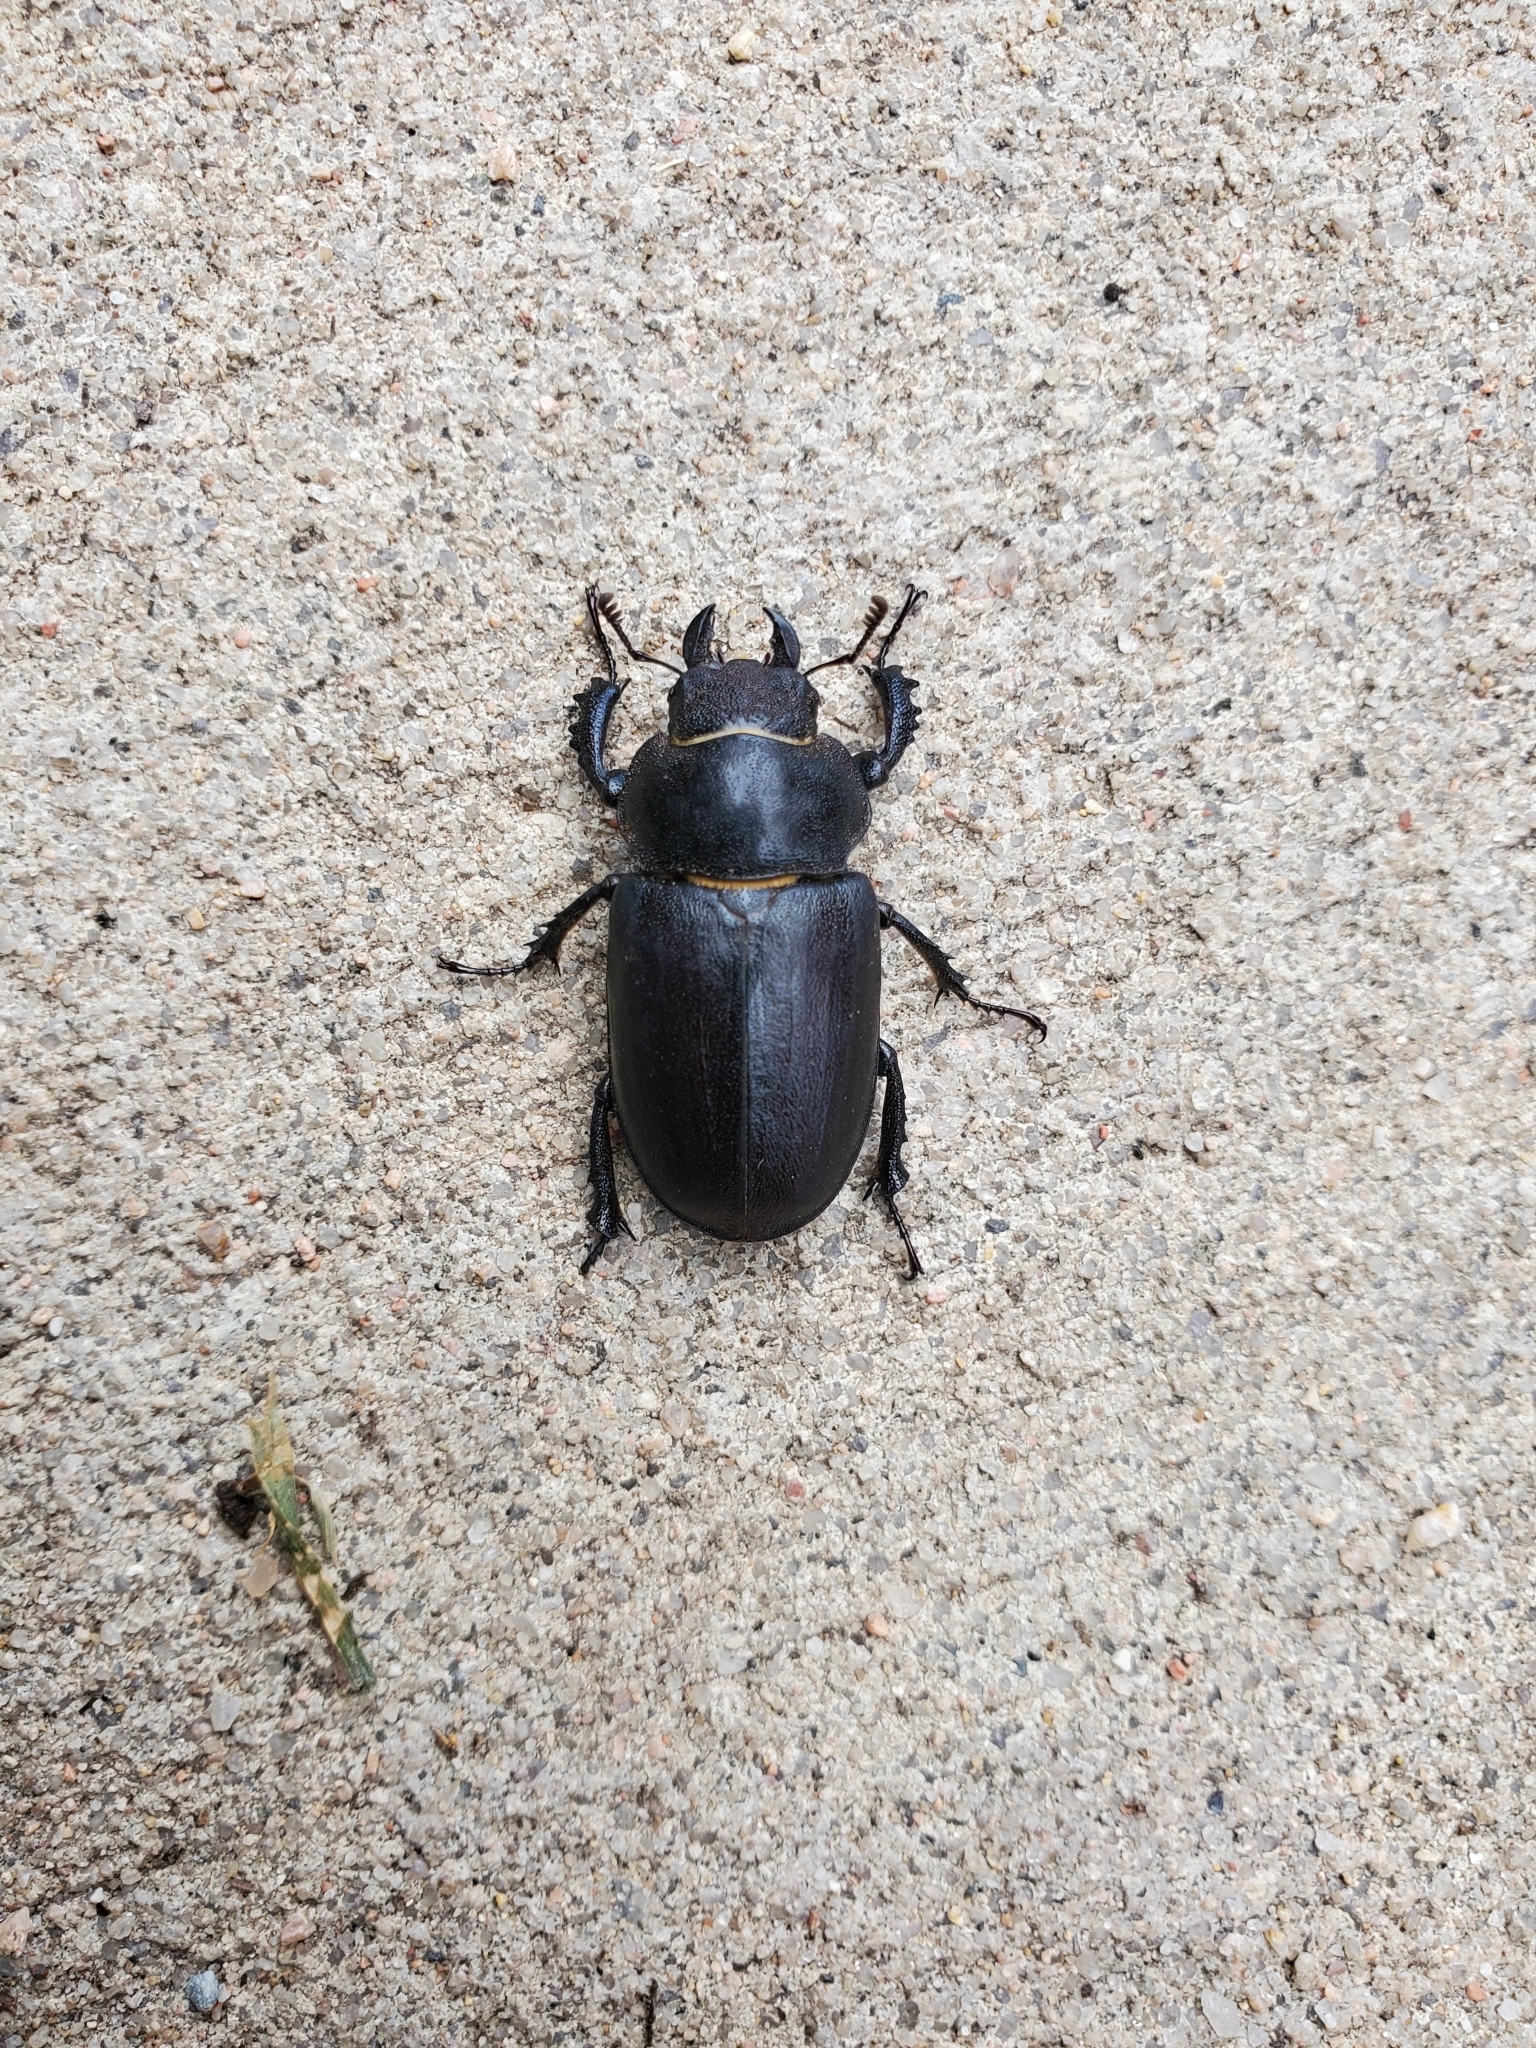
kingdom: Animalia
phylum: Arthropoda
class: Insecta
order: Coleoptera
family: Lucanidae
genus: Lucanus
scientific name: Lucanus mazama
